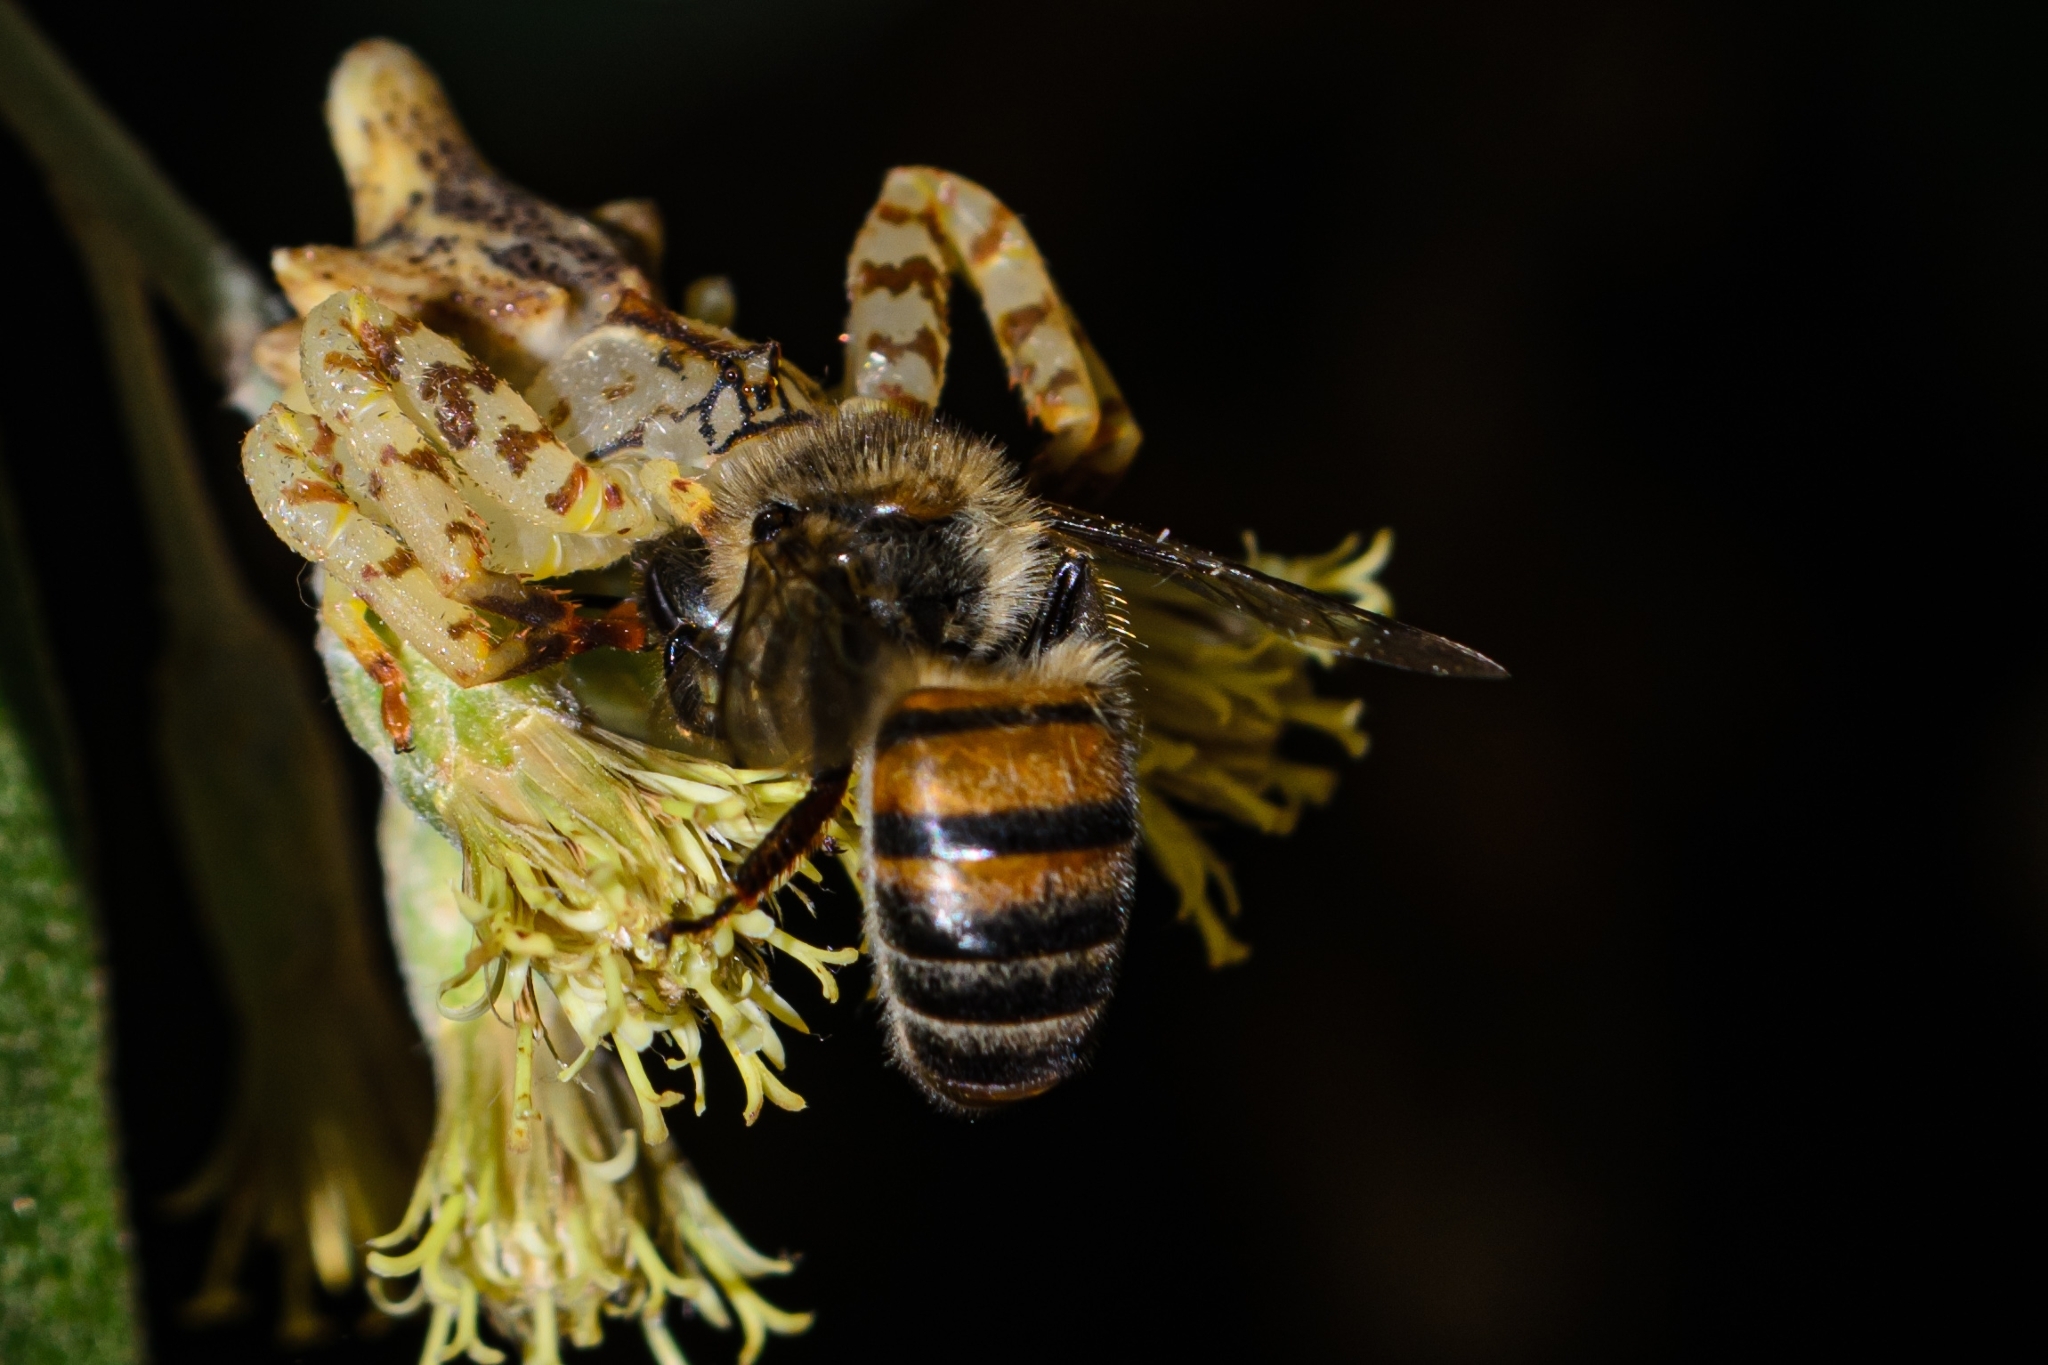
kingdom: Animalia
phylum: Arthropoda
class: Arachnida
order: Araneae
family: Thomisidae
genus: Epicadus
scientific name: Epicadus rubripes
